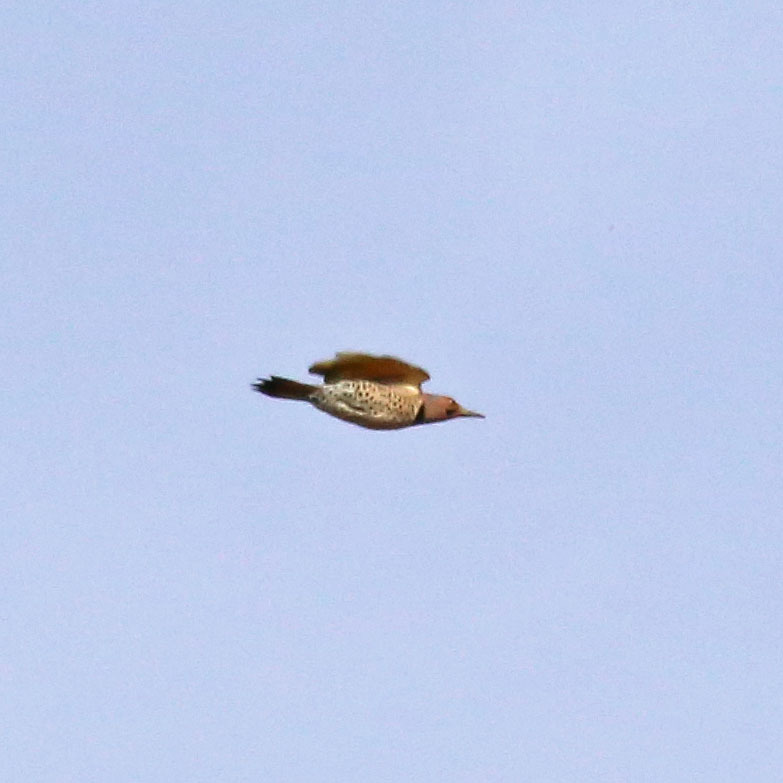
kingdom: Animalia
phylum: Chordata
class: Aves
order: Piciformes
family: Picidae
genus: Colaptes
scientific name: Colaptes auratus
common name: Northern flicker
